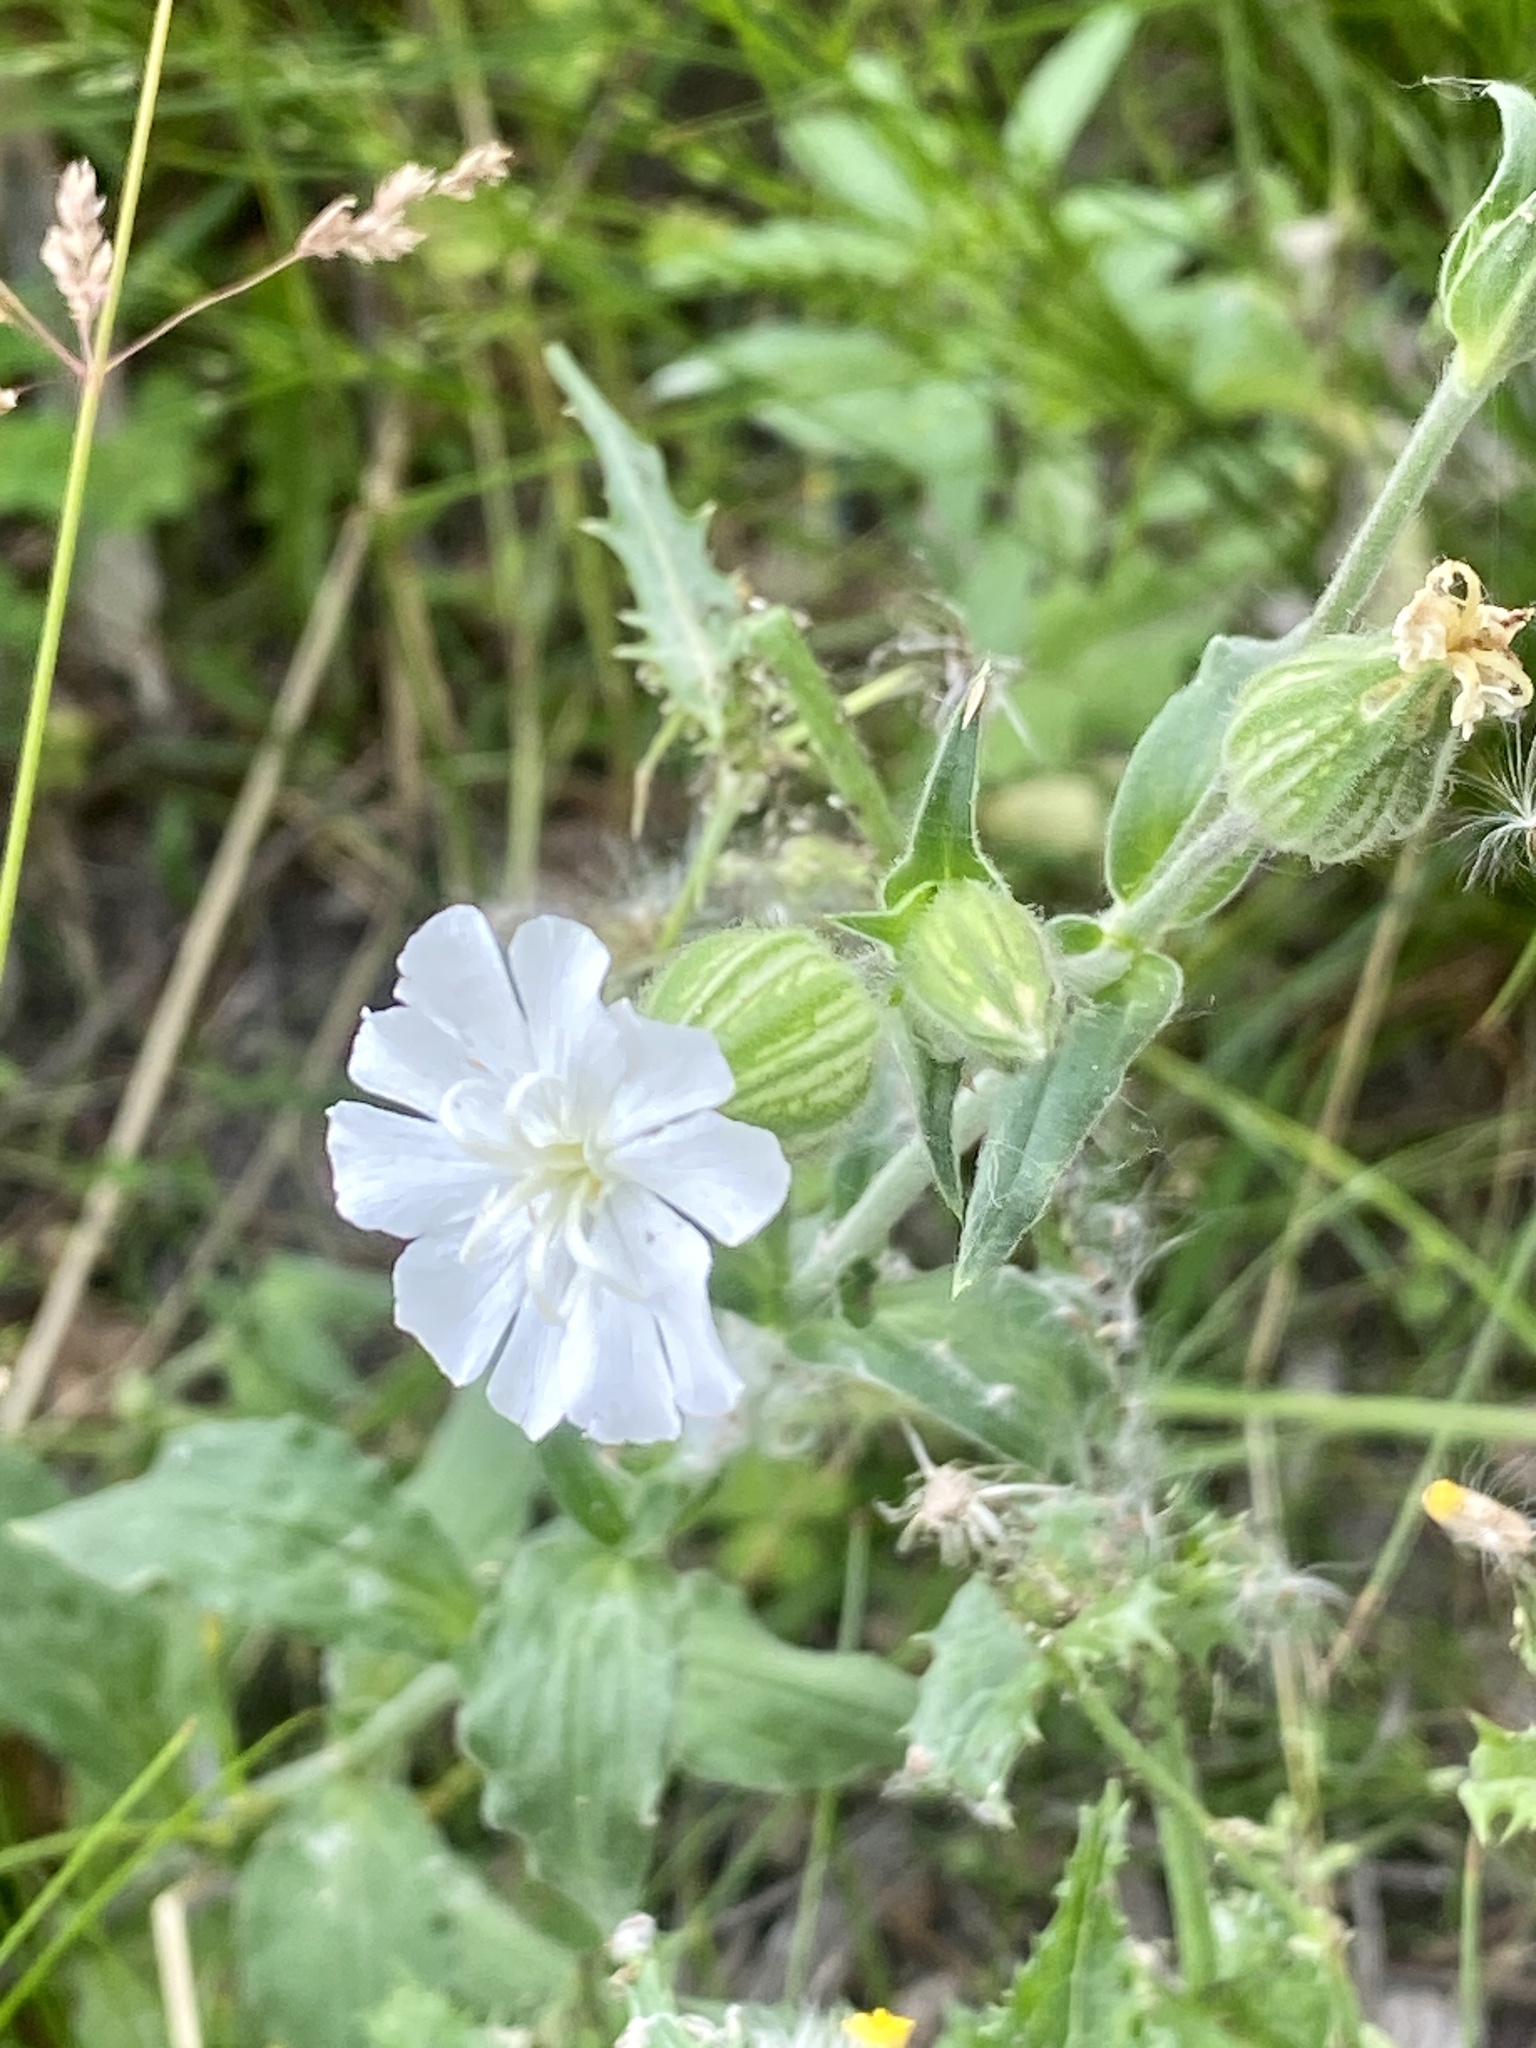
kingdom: Plantae
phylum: Tracheophyta
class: Magnoliopsida
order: Caryophyllales
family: Caryophyllaceae
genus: Silene
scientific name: Silene latifolia
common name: White campion
